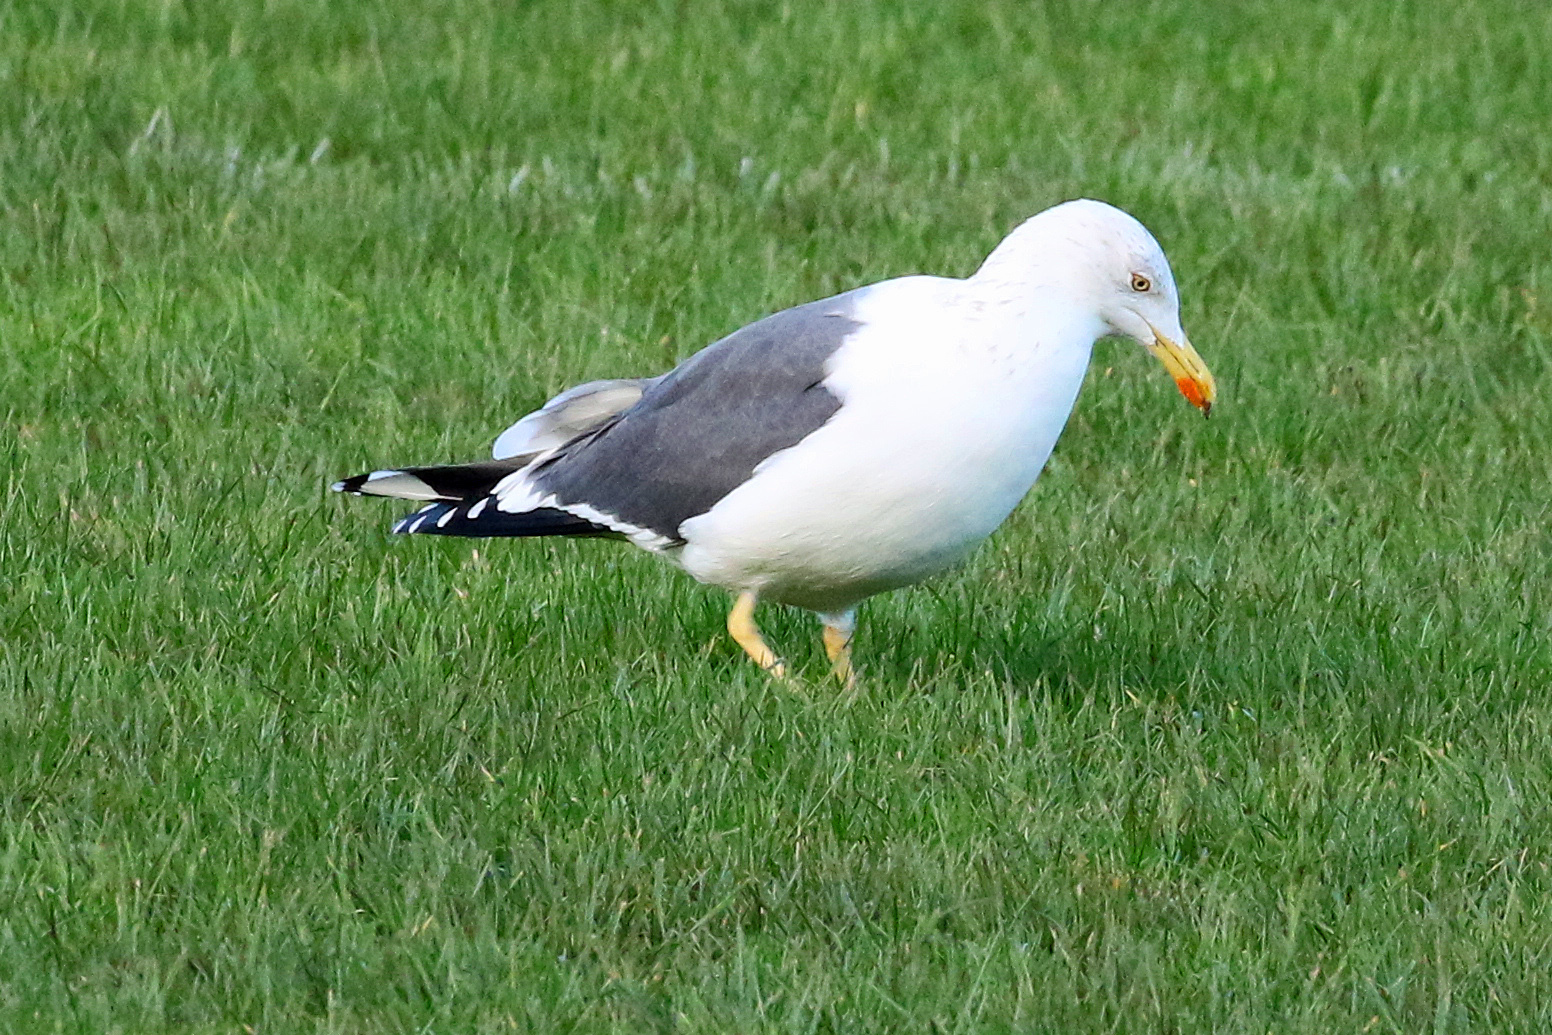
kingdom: Animalia
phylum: Chordata
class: Aves
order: Charadriiformes
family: Laridae
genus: Larus
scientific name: Larus fuscus
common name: Lesser black-backed gull
